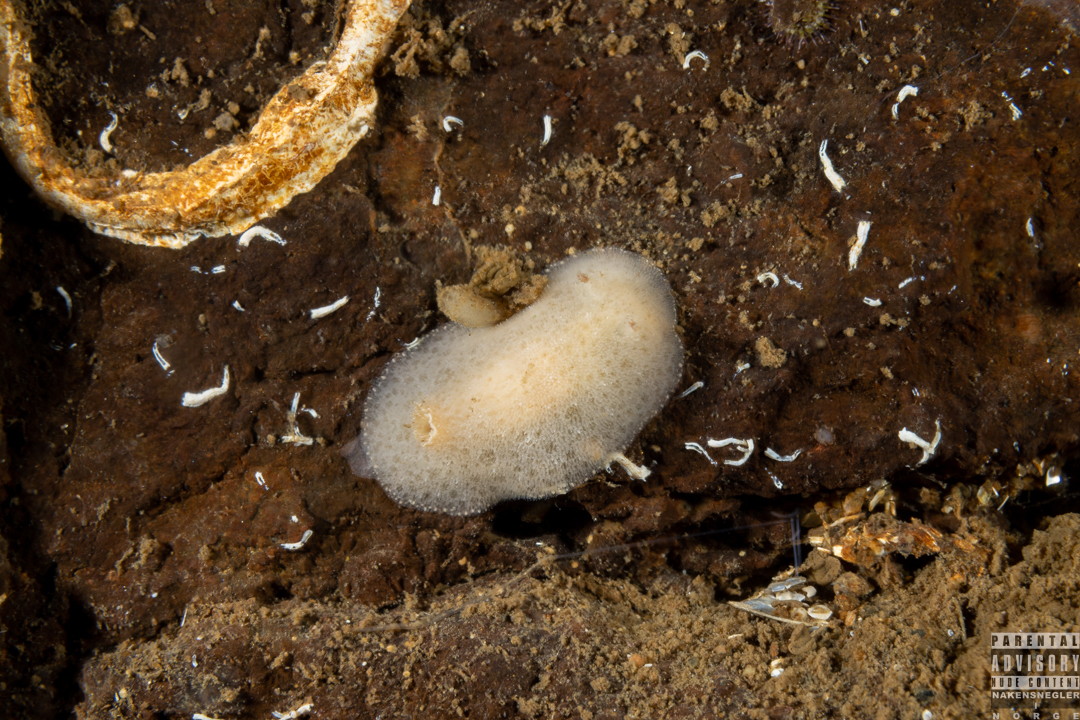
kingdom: Animalia
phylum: Mollusca
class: Gastropoda
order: Nudibranchia
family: Discodorididae
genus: Jorunna
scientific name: Jorunna tomentosa
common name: Grey sea slug
